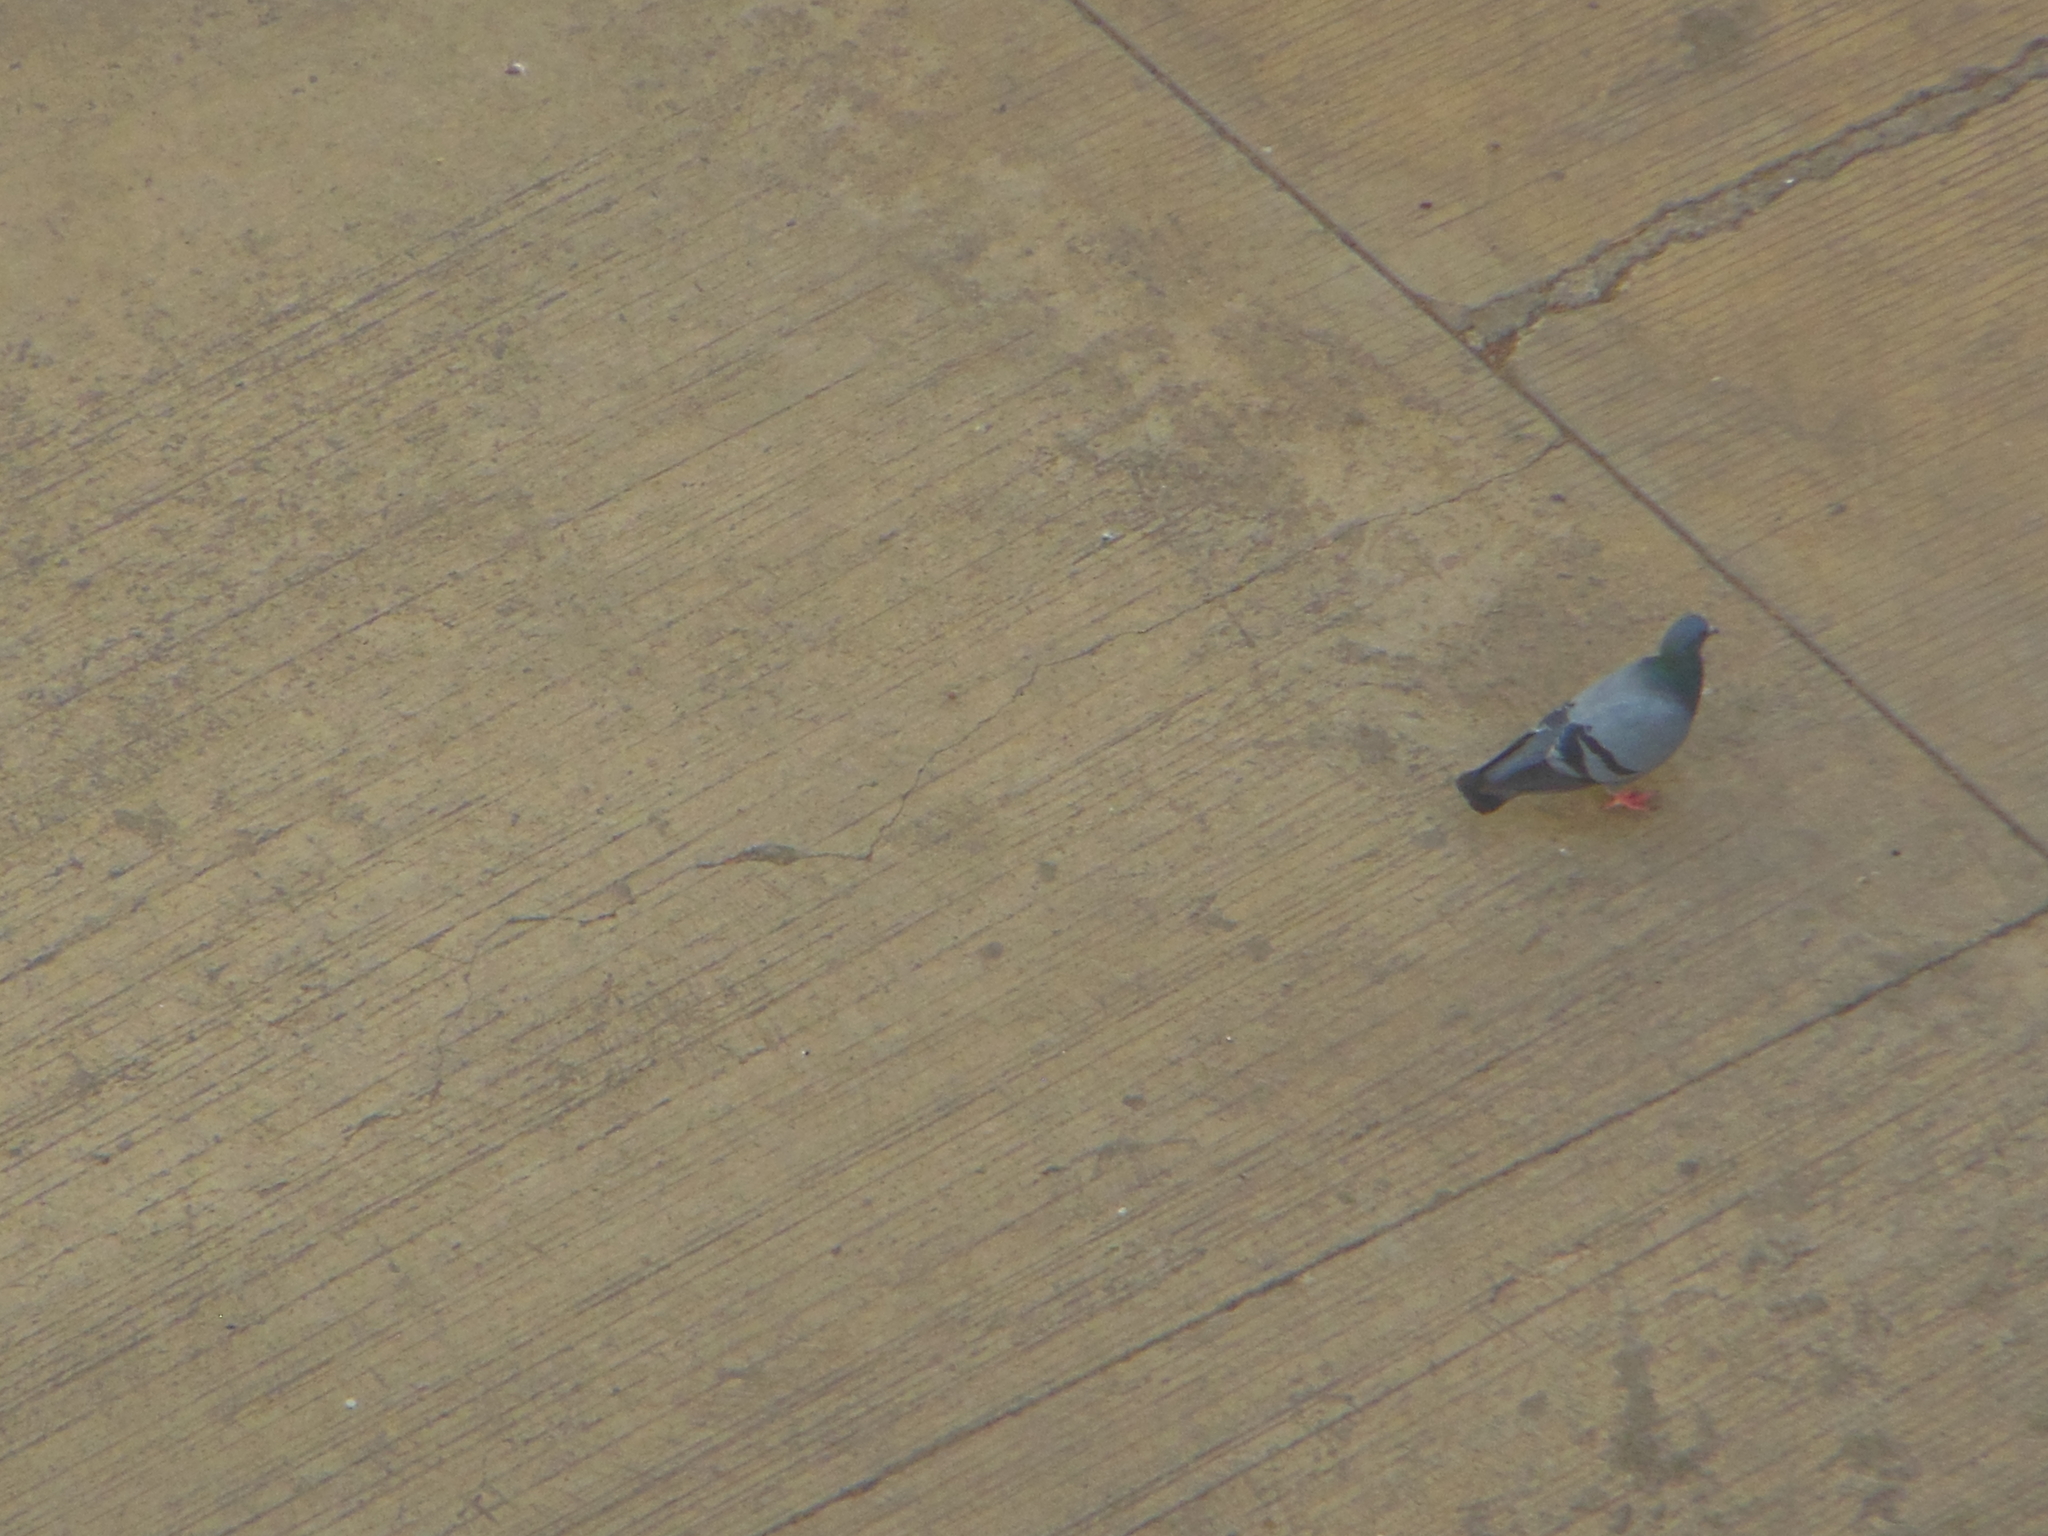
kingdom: Animalia
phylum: Chordata
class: Aves
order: Columbiformes
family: Columbidae
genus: Columba
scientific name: Columba livia
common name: Rock pigeon
